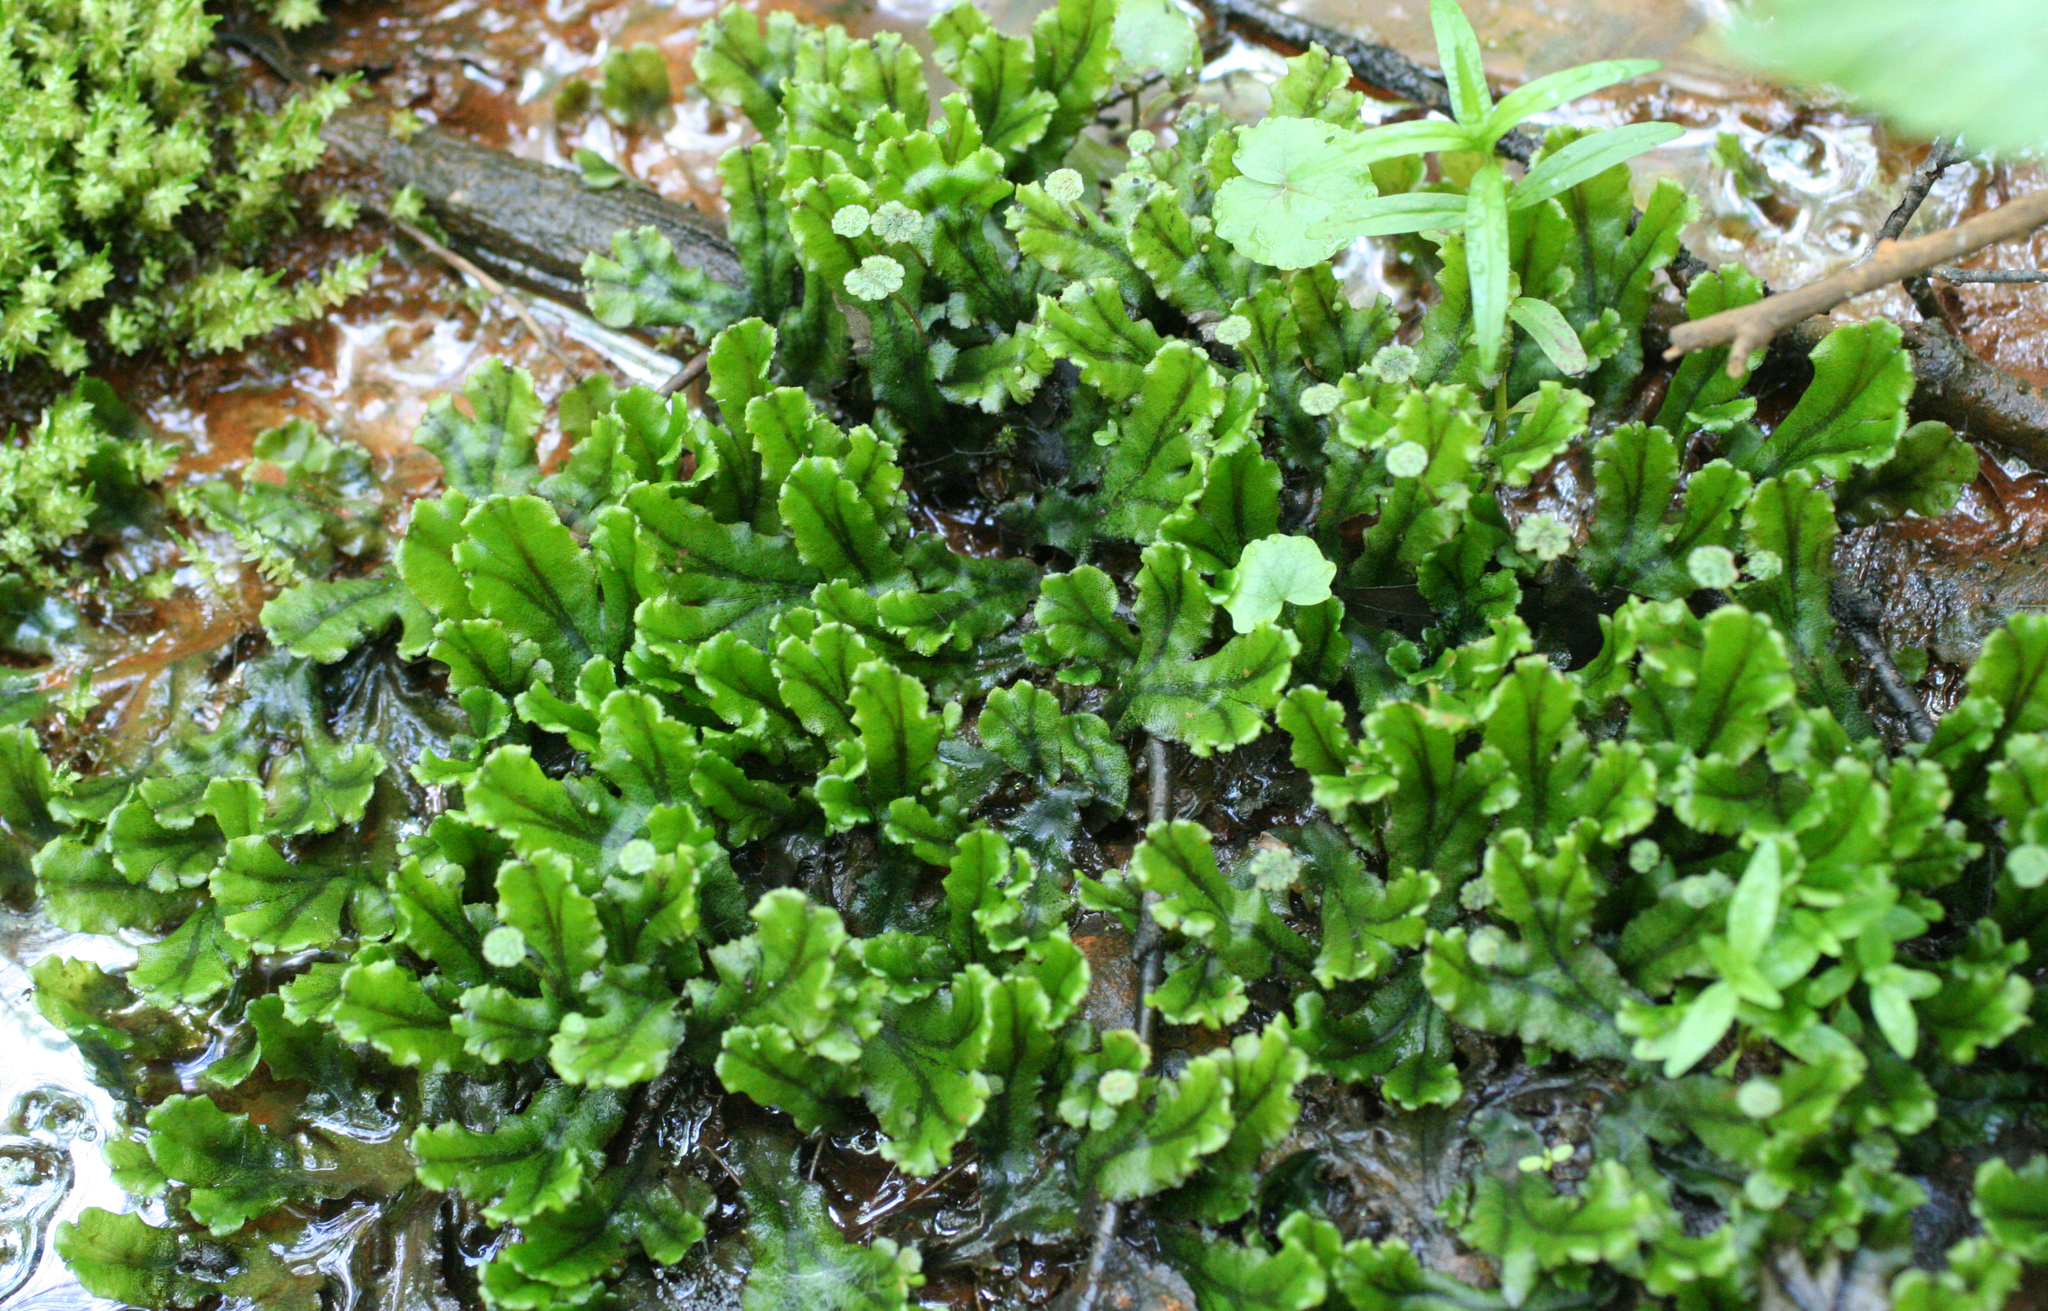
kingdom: Plantae
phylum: Marchantiophyta
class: Marchantiopsida
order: Marchantiales
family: Marchantiaceae
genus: Marchantia
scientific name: Marchantia polymorpha
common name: Common liverwort
